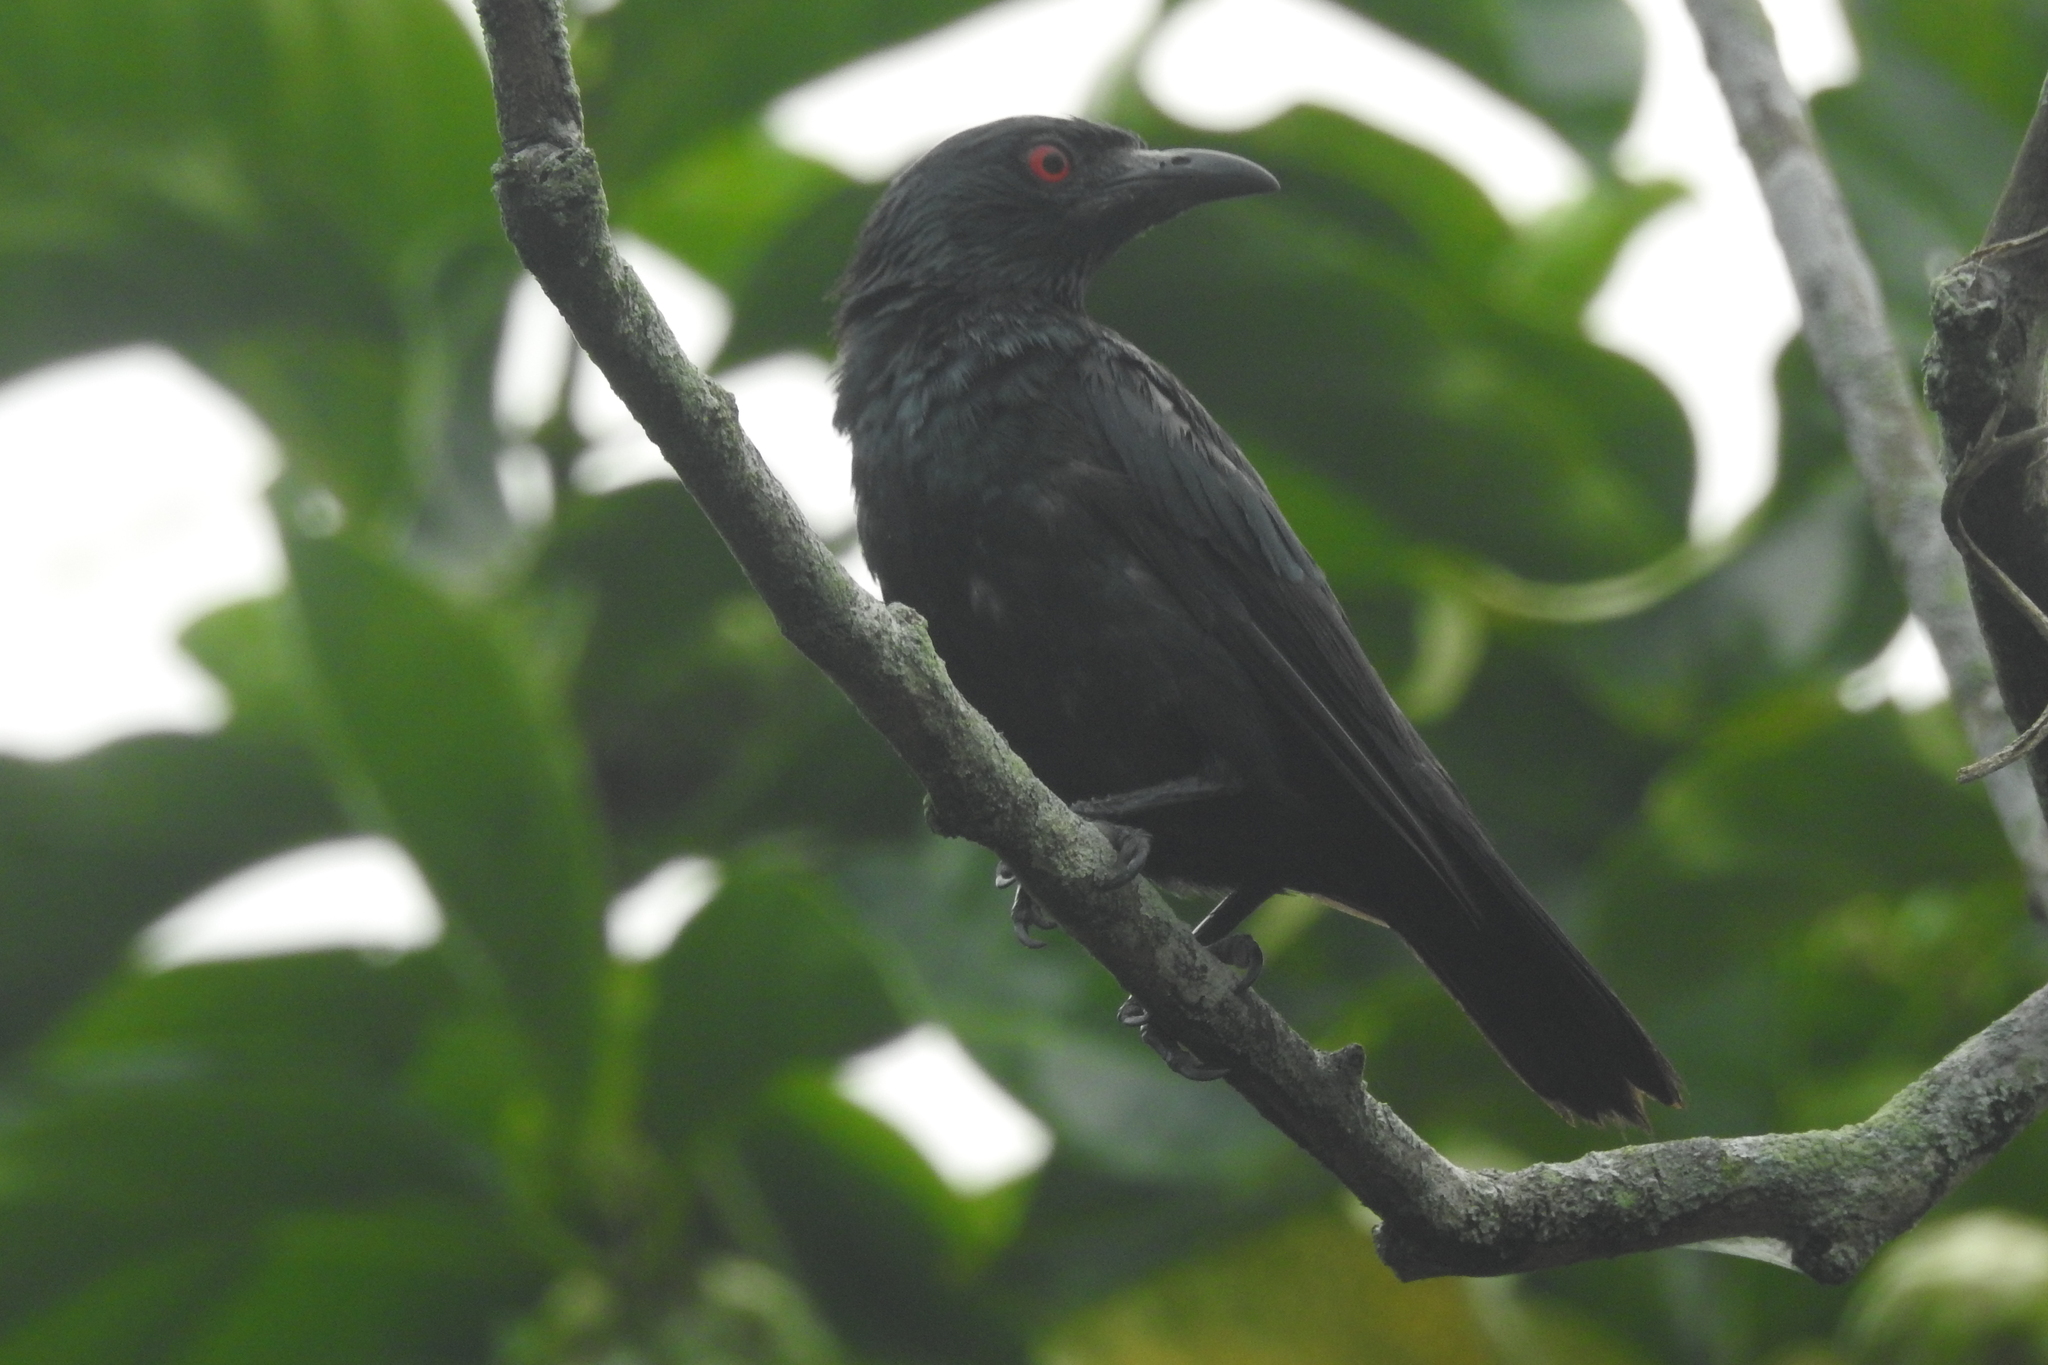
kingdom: Animalia
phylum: Chordata
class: Aves
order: Passeriformes
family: Sturnidae
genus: Aplonis
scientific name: Aplonis panayensis
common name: Asian glossy starling
